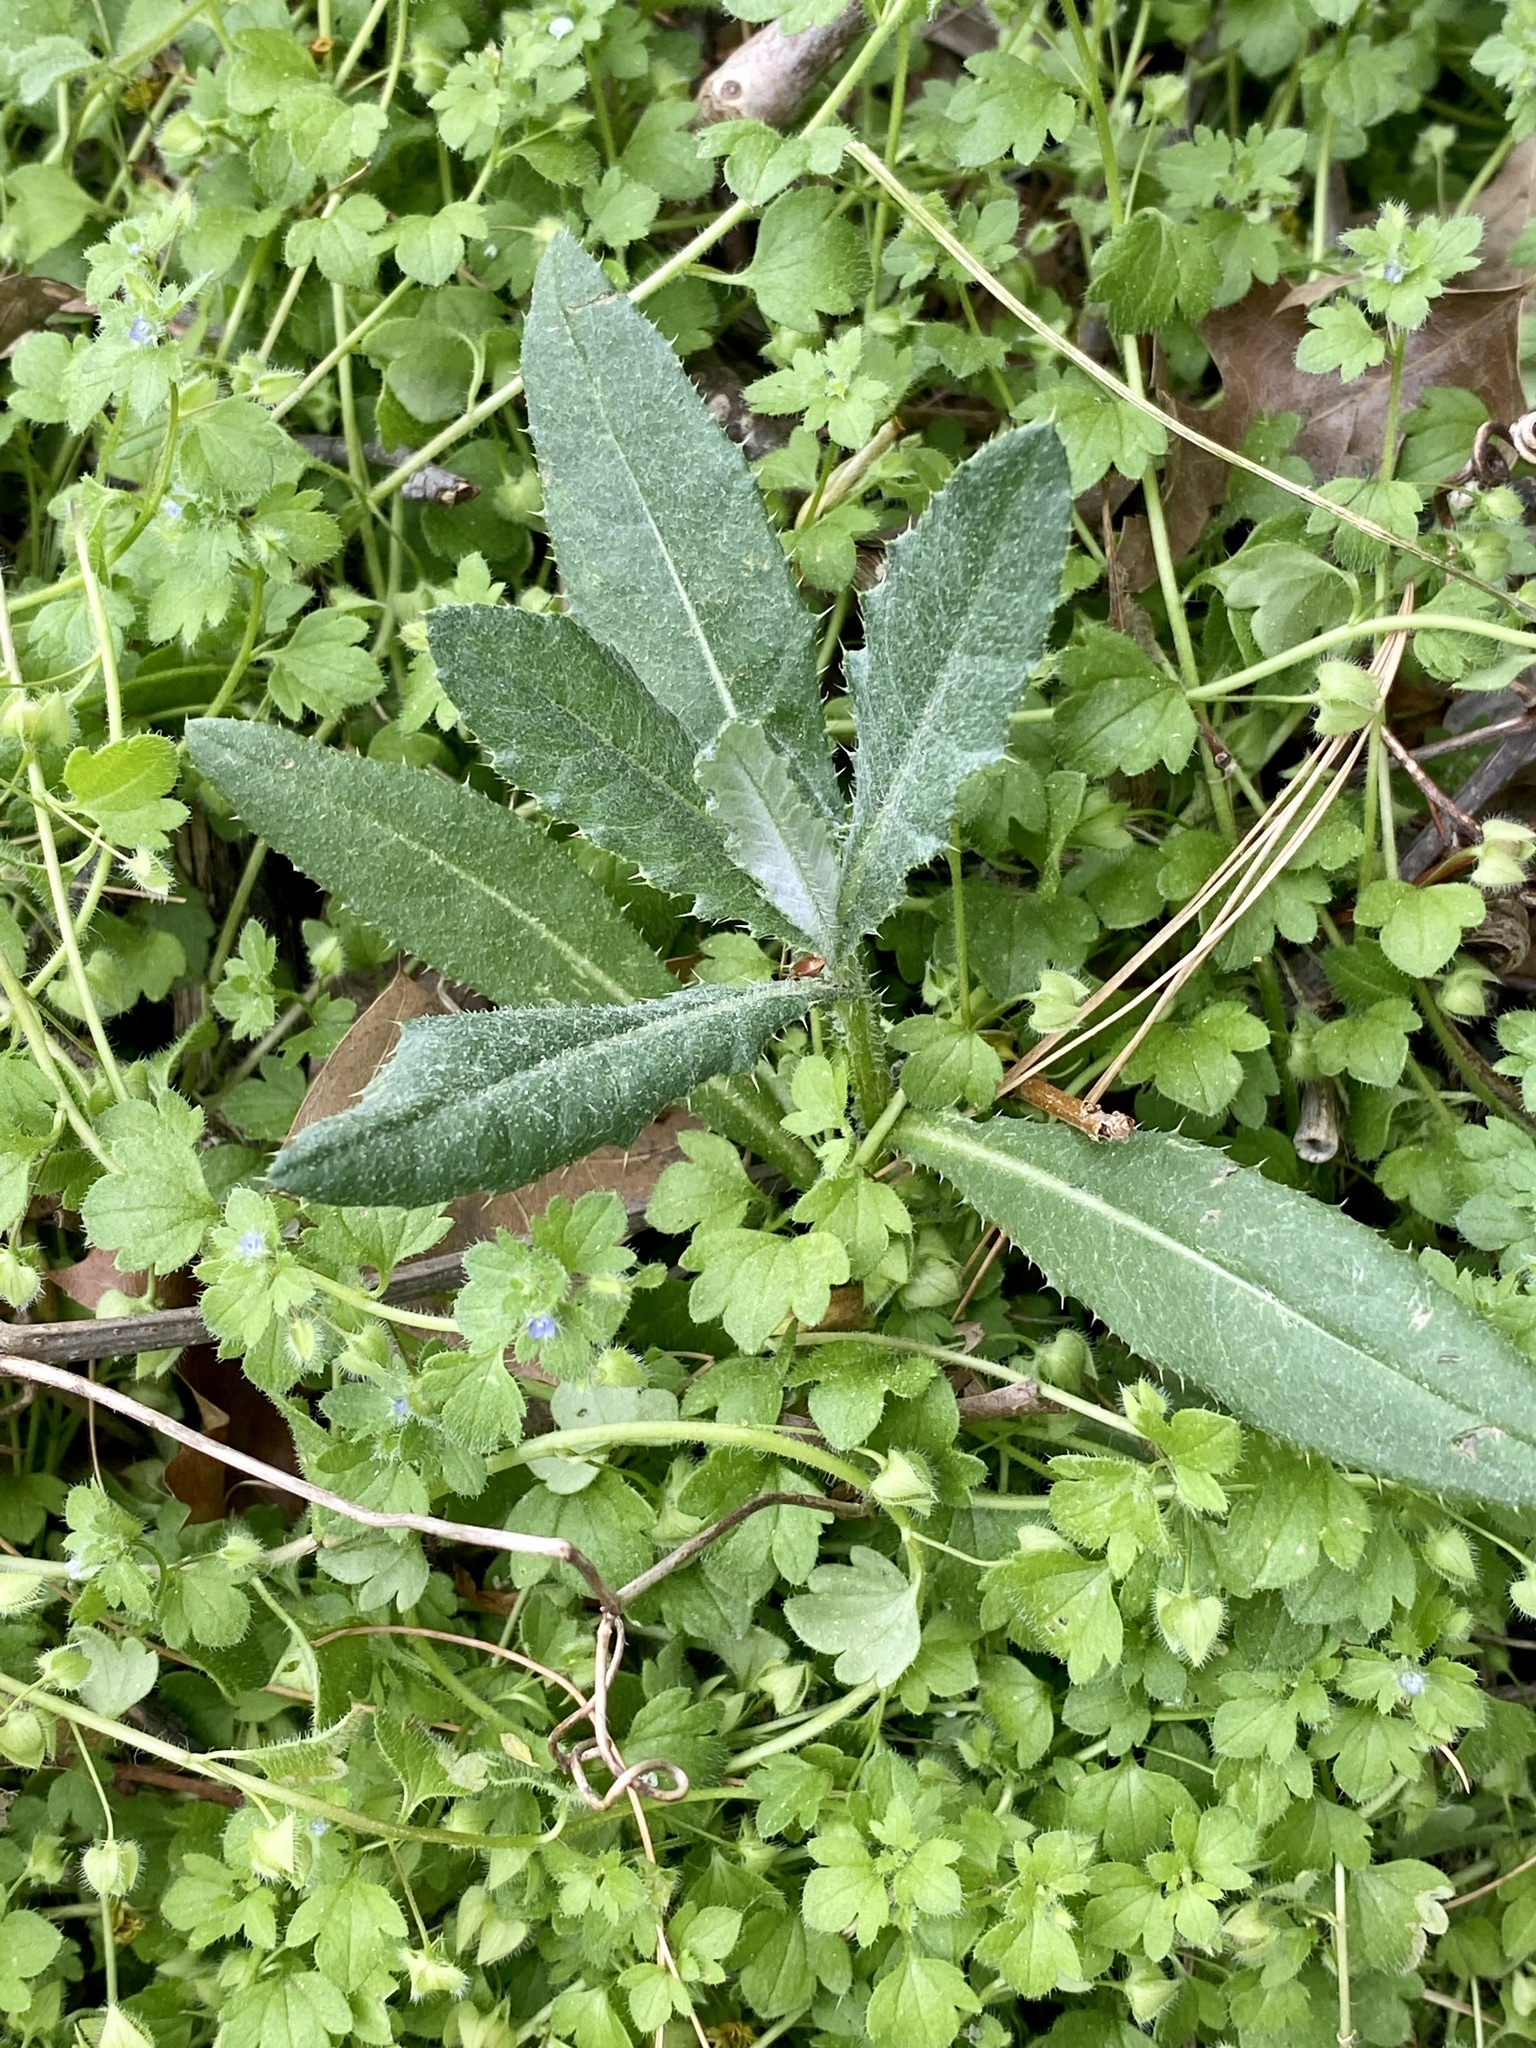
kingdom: Plantae
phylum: Tracheophyta
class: Magnoliopsida
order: Asterales
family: Asteraceae
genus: Cirsium
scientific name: Cirsium arvense
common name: Creeping thistle
